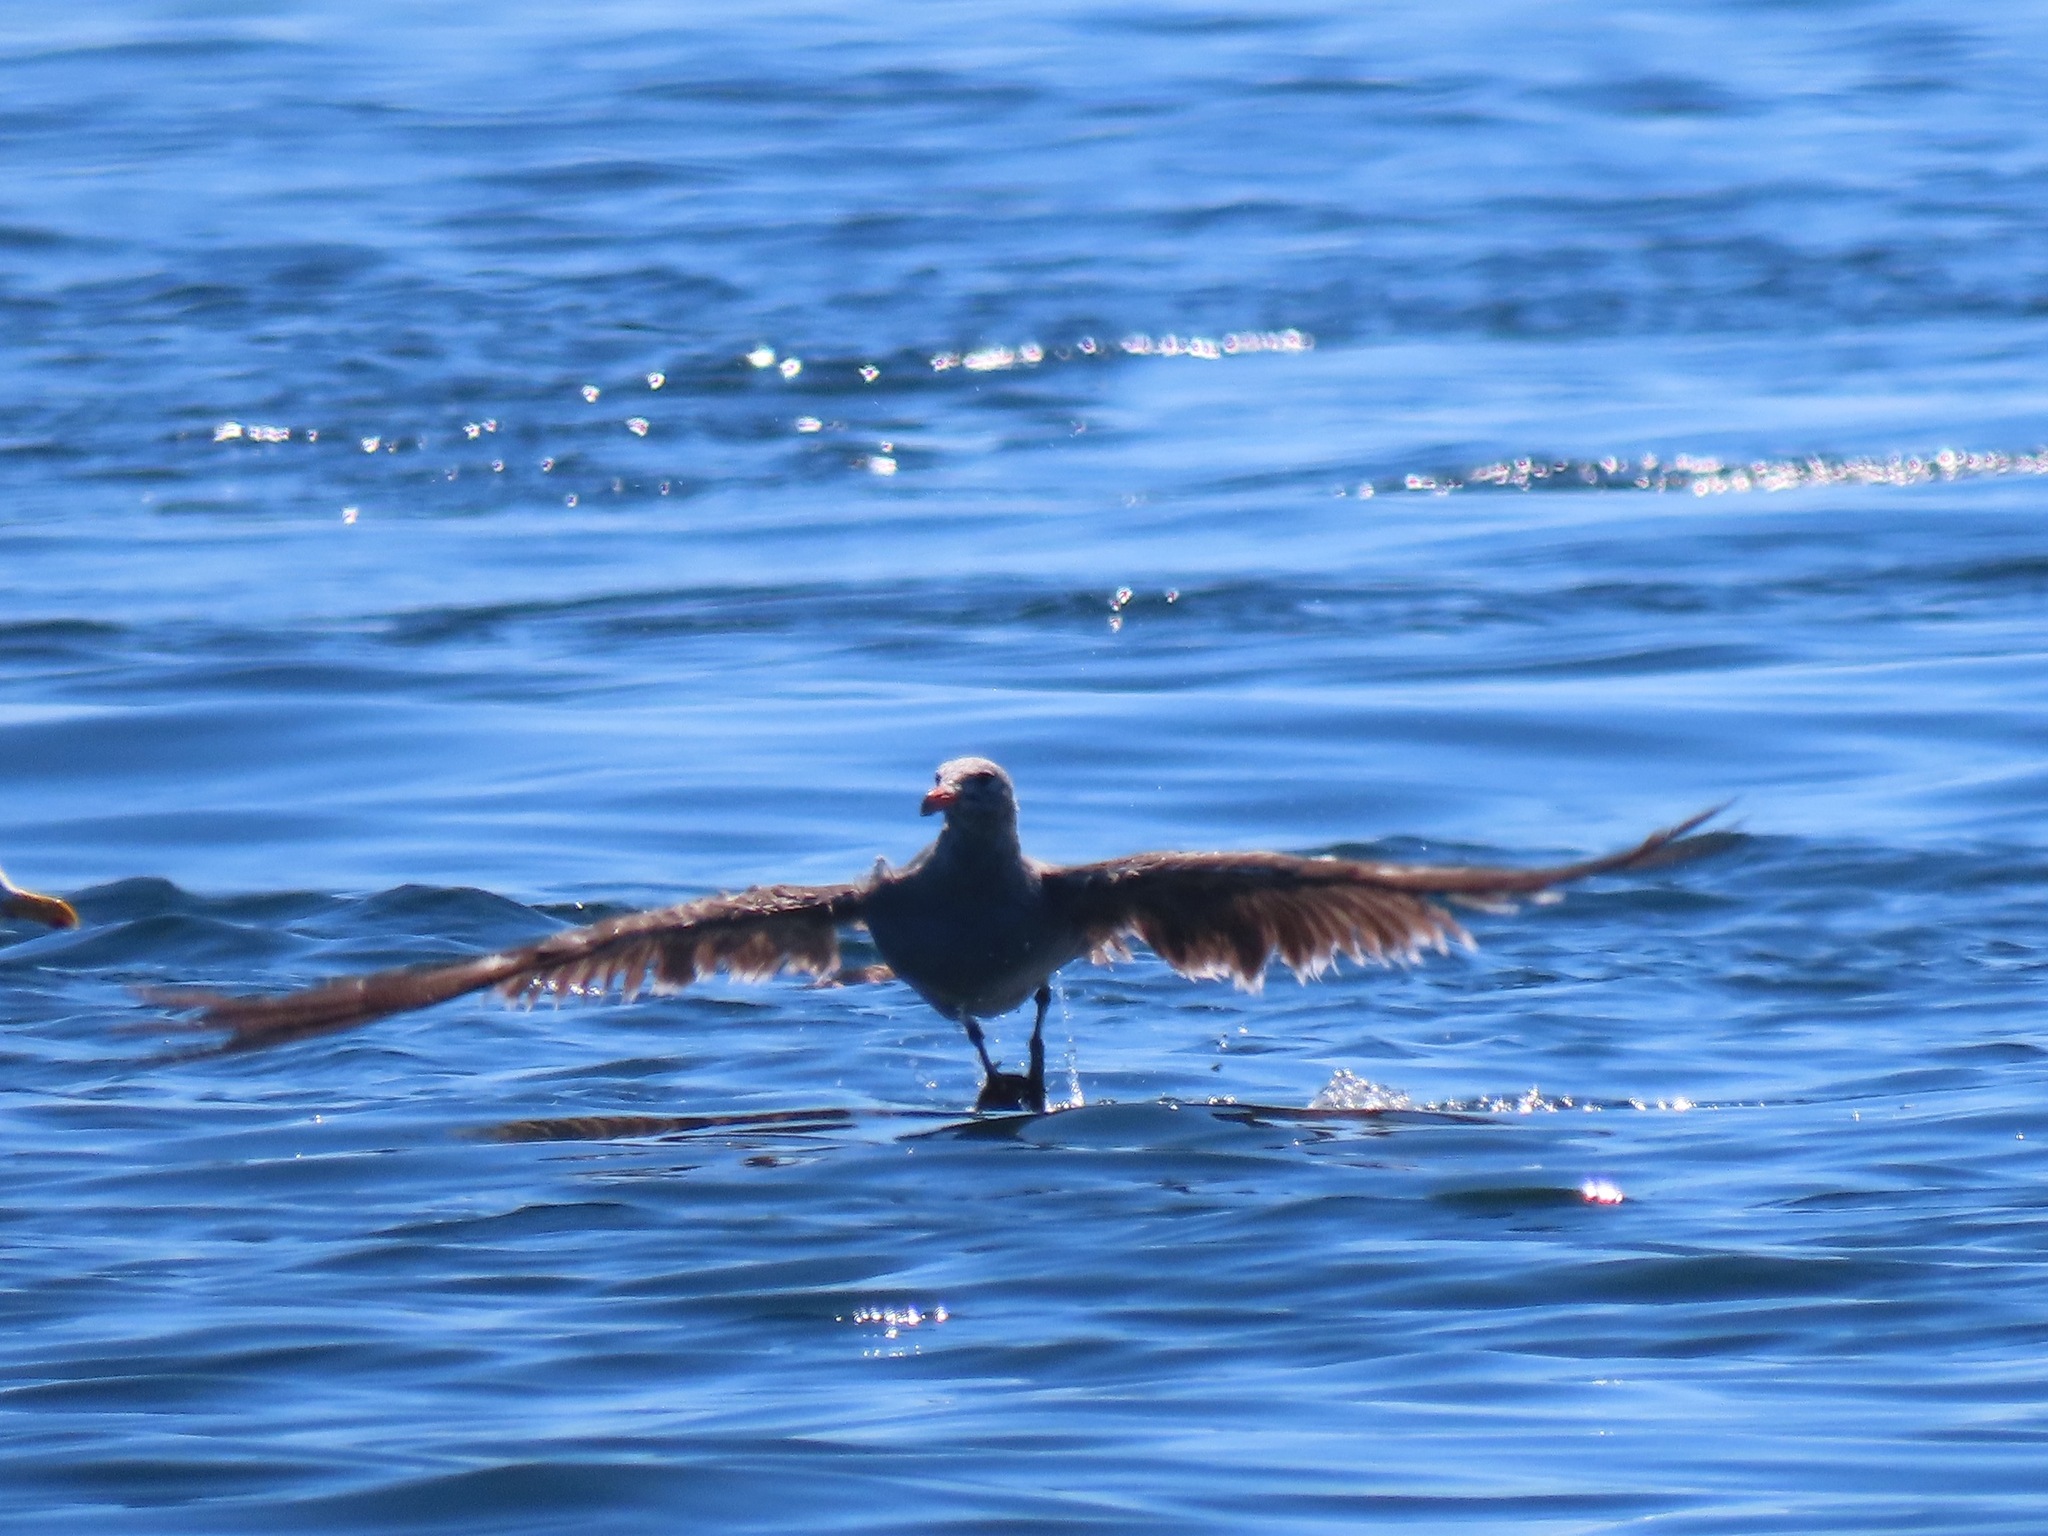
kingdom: Animalia
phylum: Chordata
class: Aves
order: Charadriiformes
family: Laridae
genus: Larus
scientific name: Larus heermanni
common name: Heermann's gull
